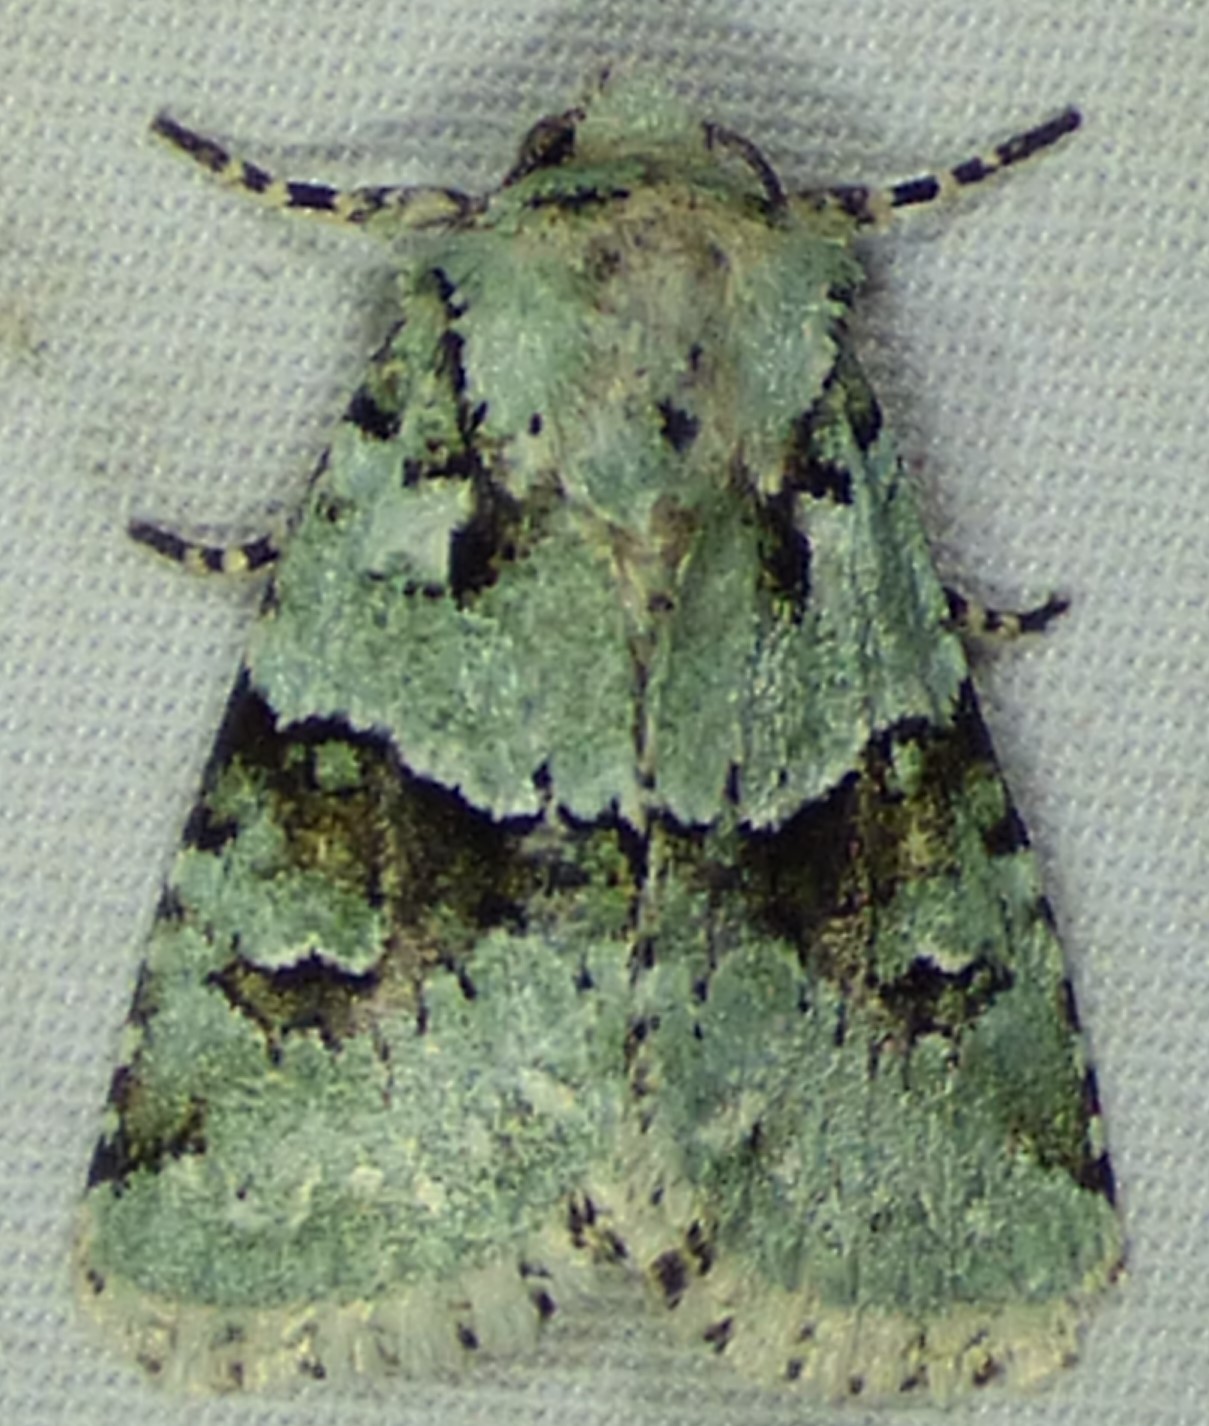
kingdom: Animalia
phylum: Arthropoda
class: Insecta
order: Lepidoptera
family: Noctuidae
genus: Lacinipolia
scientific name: Lacinipolia implicata
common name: Implicit arches
